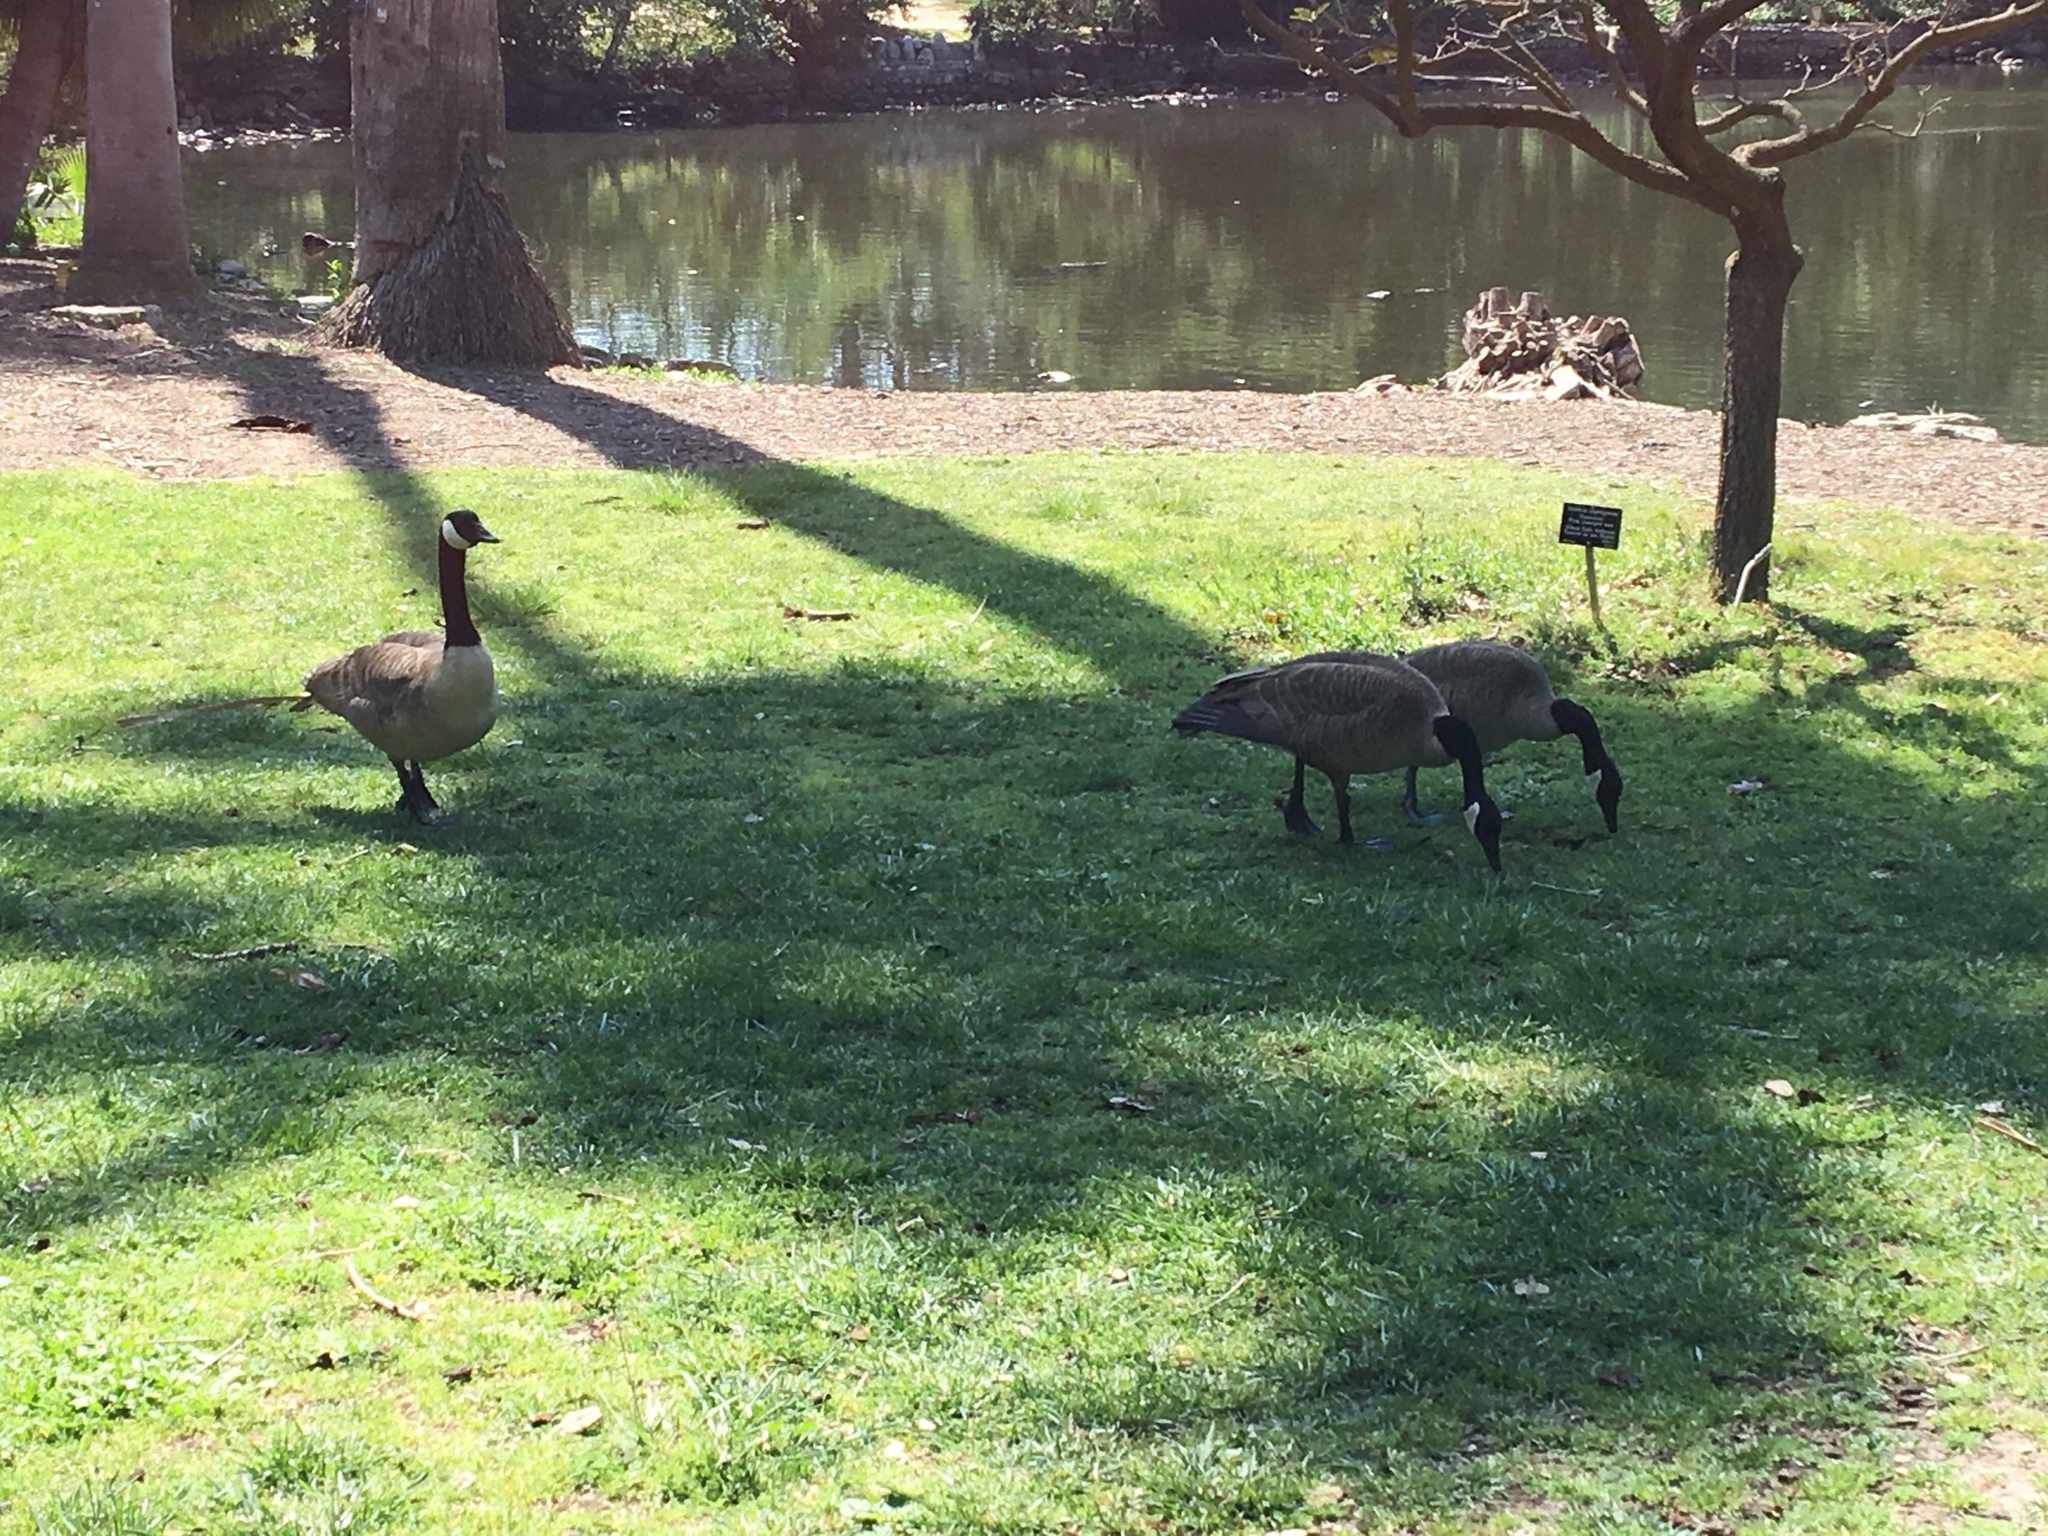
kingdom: Animalia
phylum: Chordata
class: Aves
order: Anseriformes
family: Anatidae
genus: Branta
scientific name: Branta canadensis
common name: Canada goose
